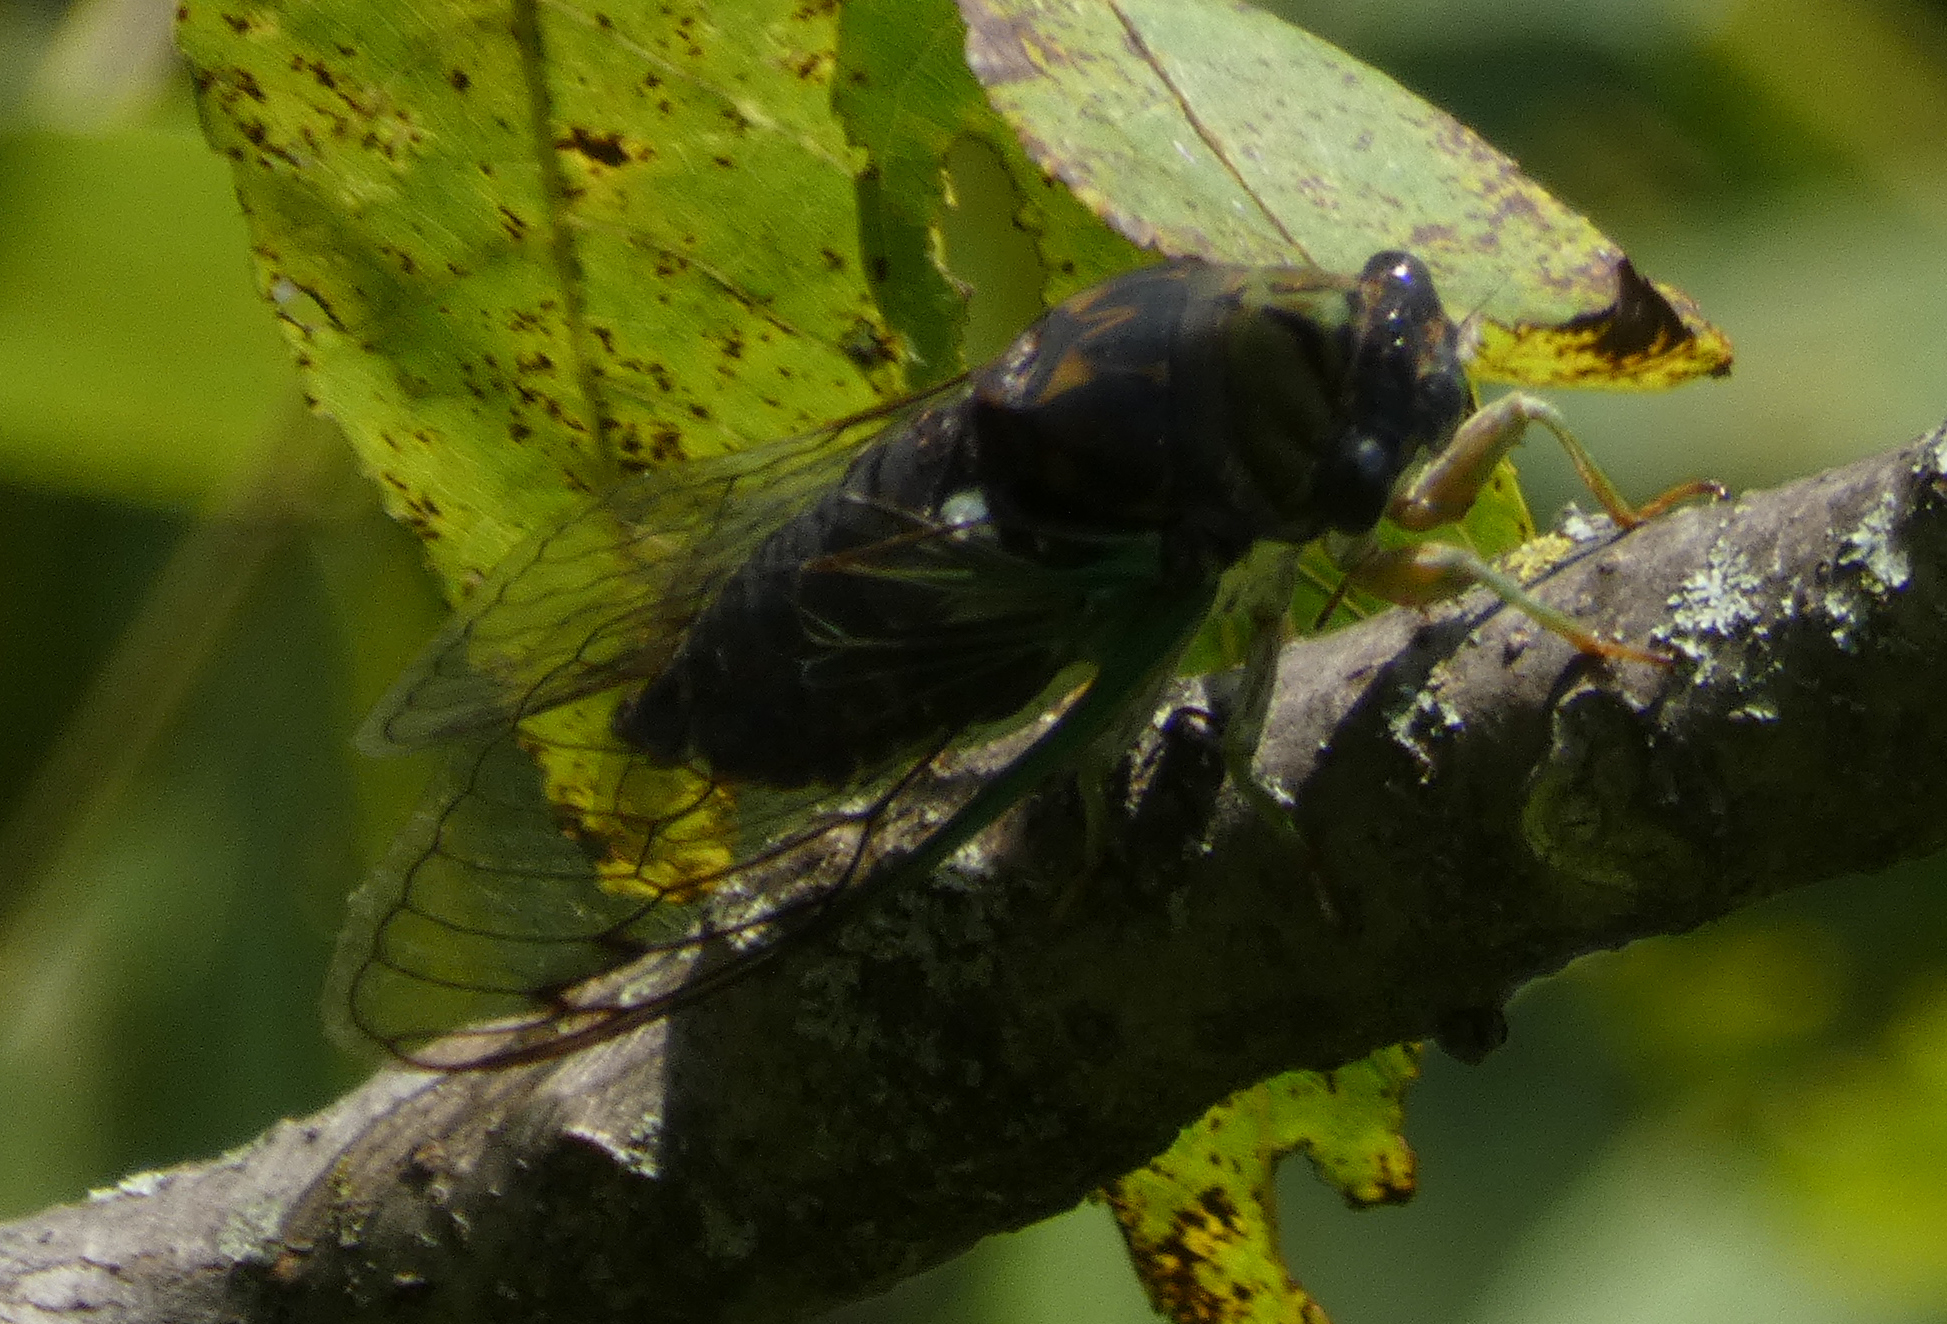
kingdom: Animalia
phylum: Arthropoda
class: Insecta
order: Hemiptera
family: Cicadidae
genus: Neotibicen
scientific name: Neotibicen tibicen
